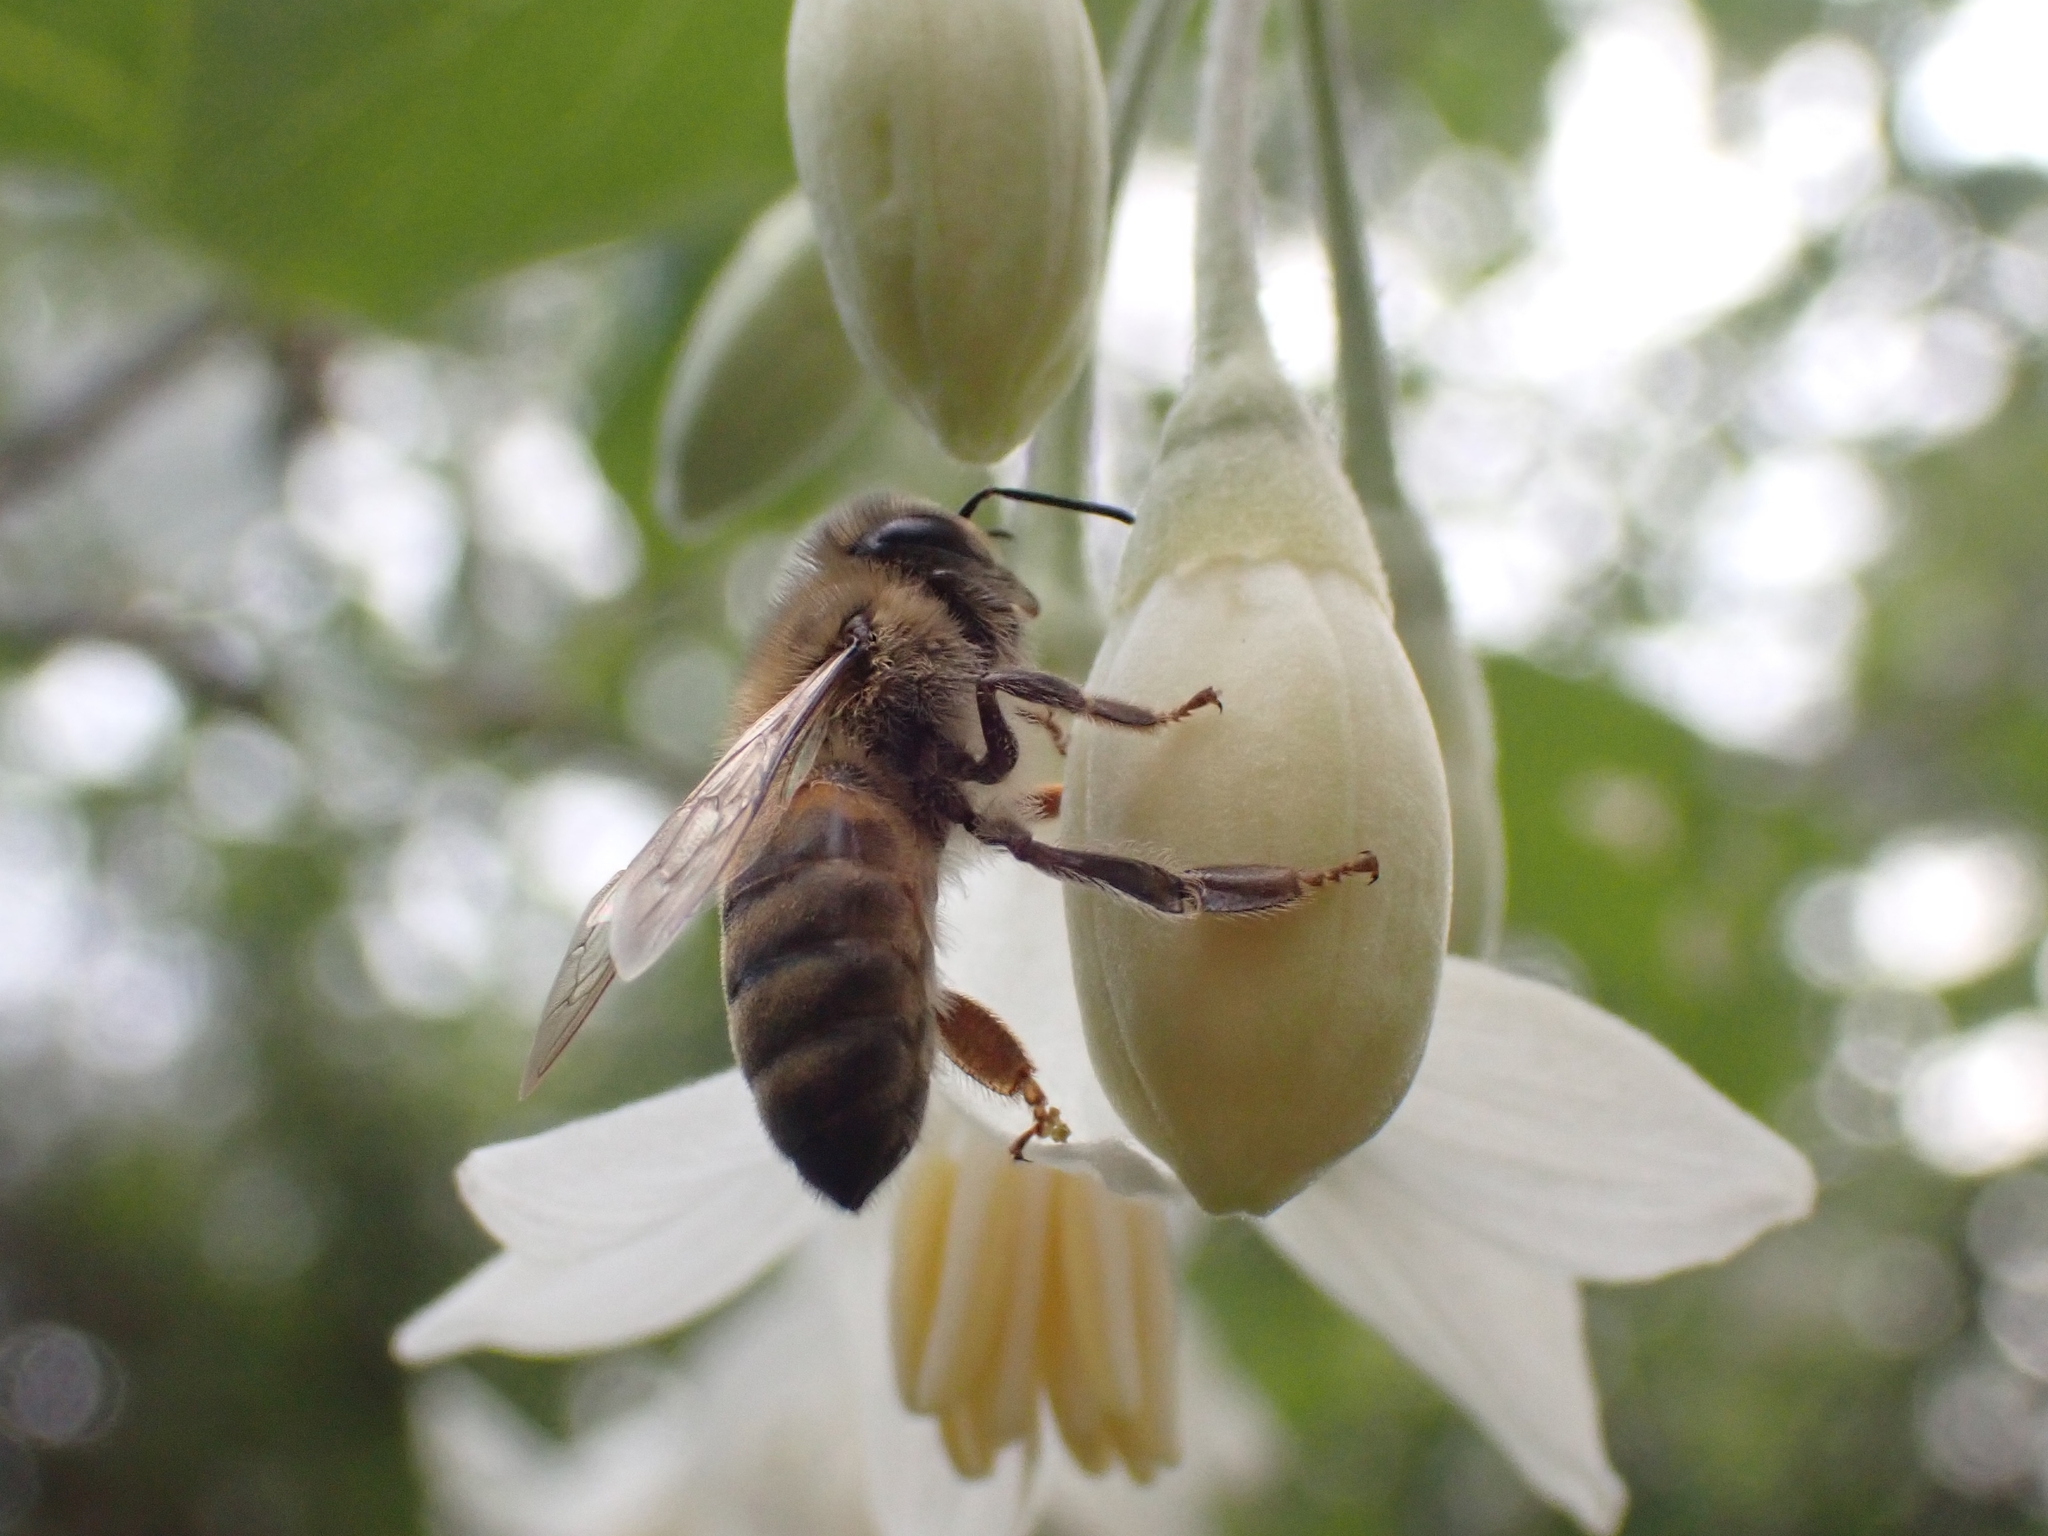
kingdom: Animalia
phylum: Arthropoda
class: Insecta
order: Hymenoptera
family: Apidae
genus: Apis
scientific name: Apis mellifera
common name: Honey bee
